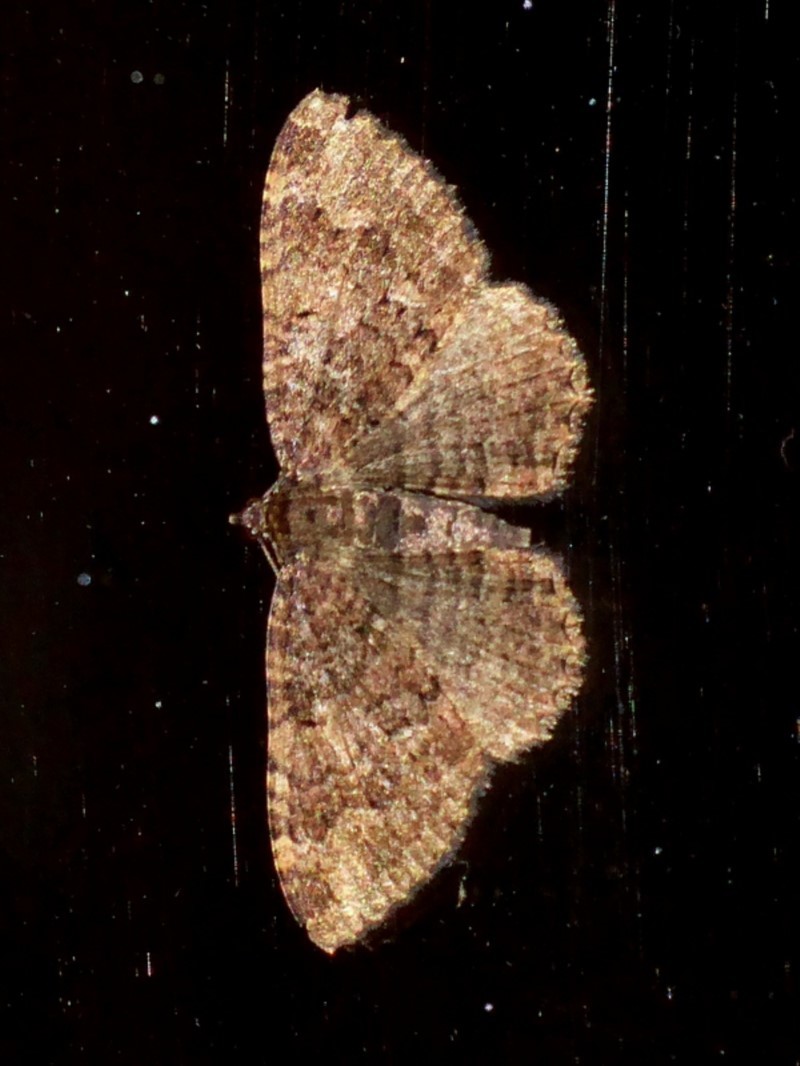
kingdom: Animalia
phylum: Arthropoda
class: Insecta
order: Lepidoptera
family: Geometridae
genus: Visiana
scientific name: Visiana brujata
